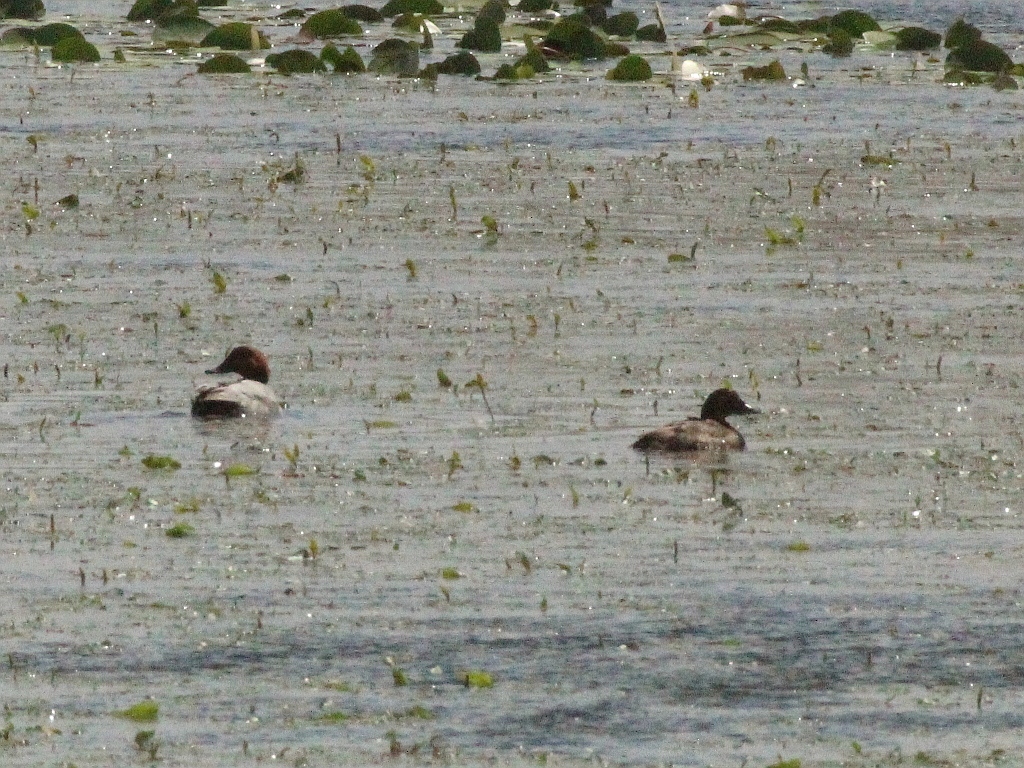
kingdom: Animalia
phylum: Chordata
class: Aves
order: Anseriformes
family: Anatidae
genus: Aythya
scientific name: Aythya ferina
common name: Common pochard
